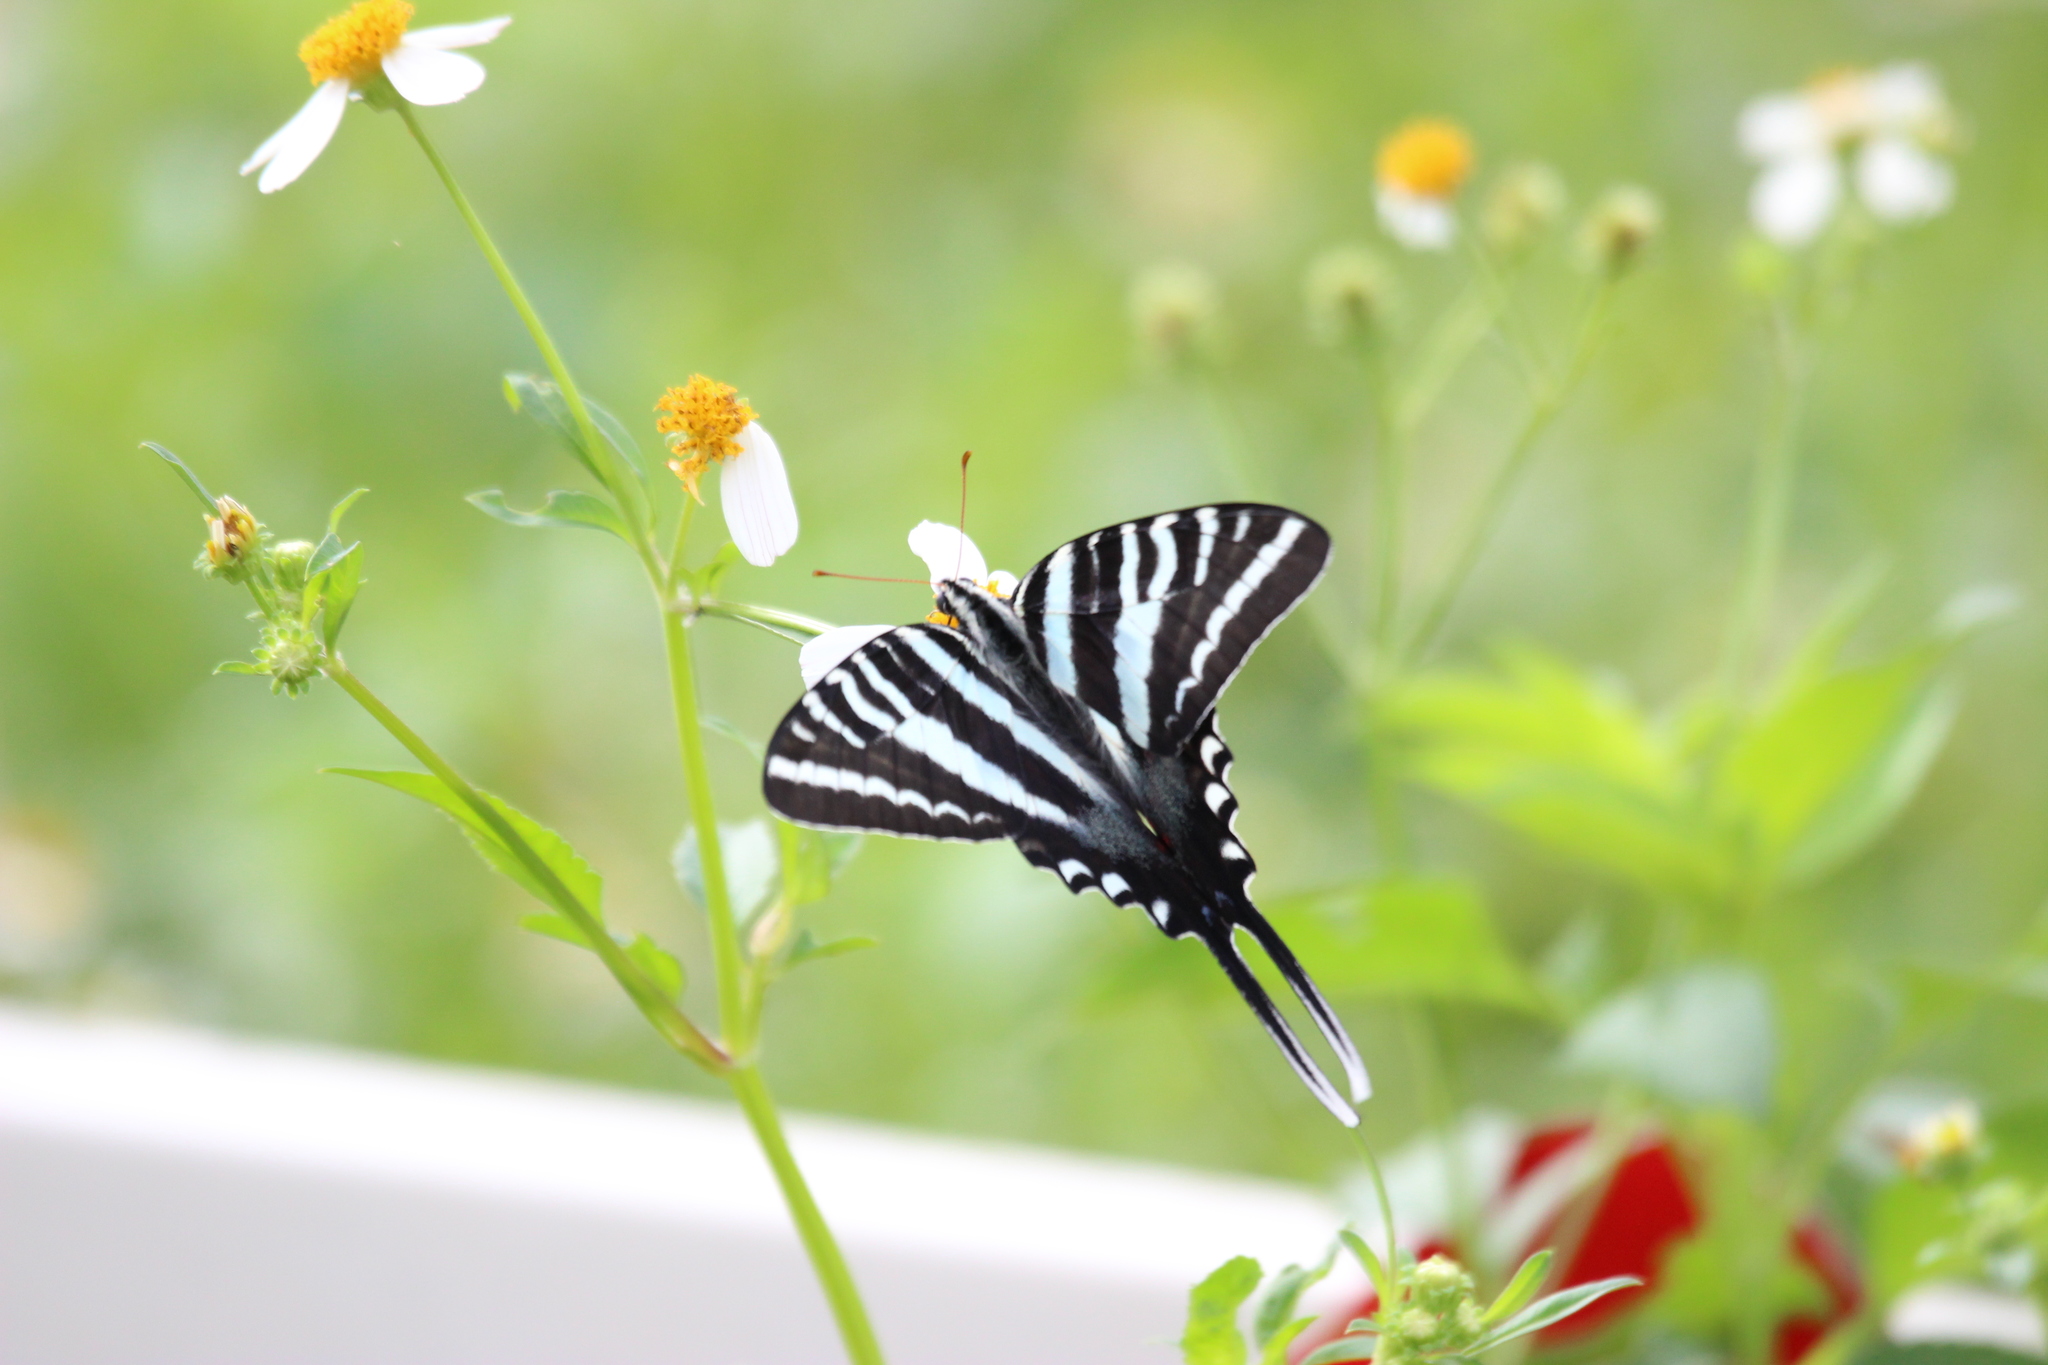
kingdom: Animalia
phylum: Arthropoda
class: Insecta
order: Lepidoptera
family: Papilionidae
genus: Protographium
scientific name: Protographium marcellus
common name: Zebra swallowtail
